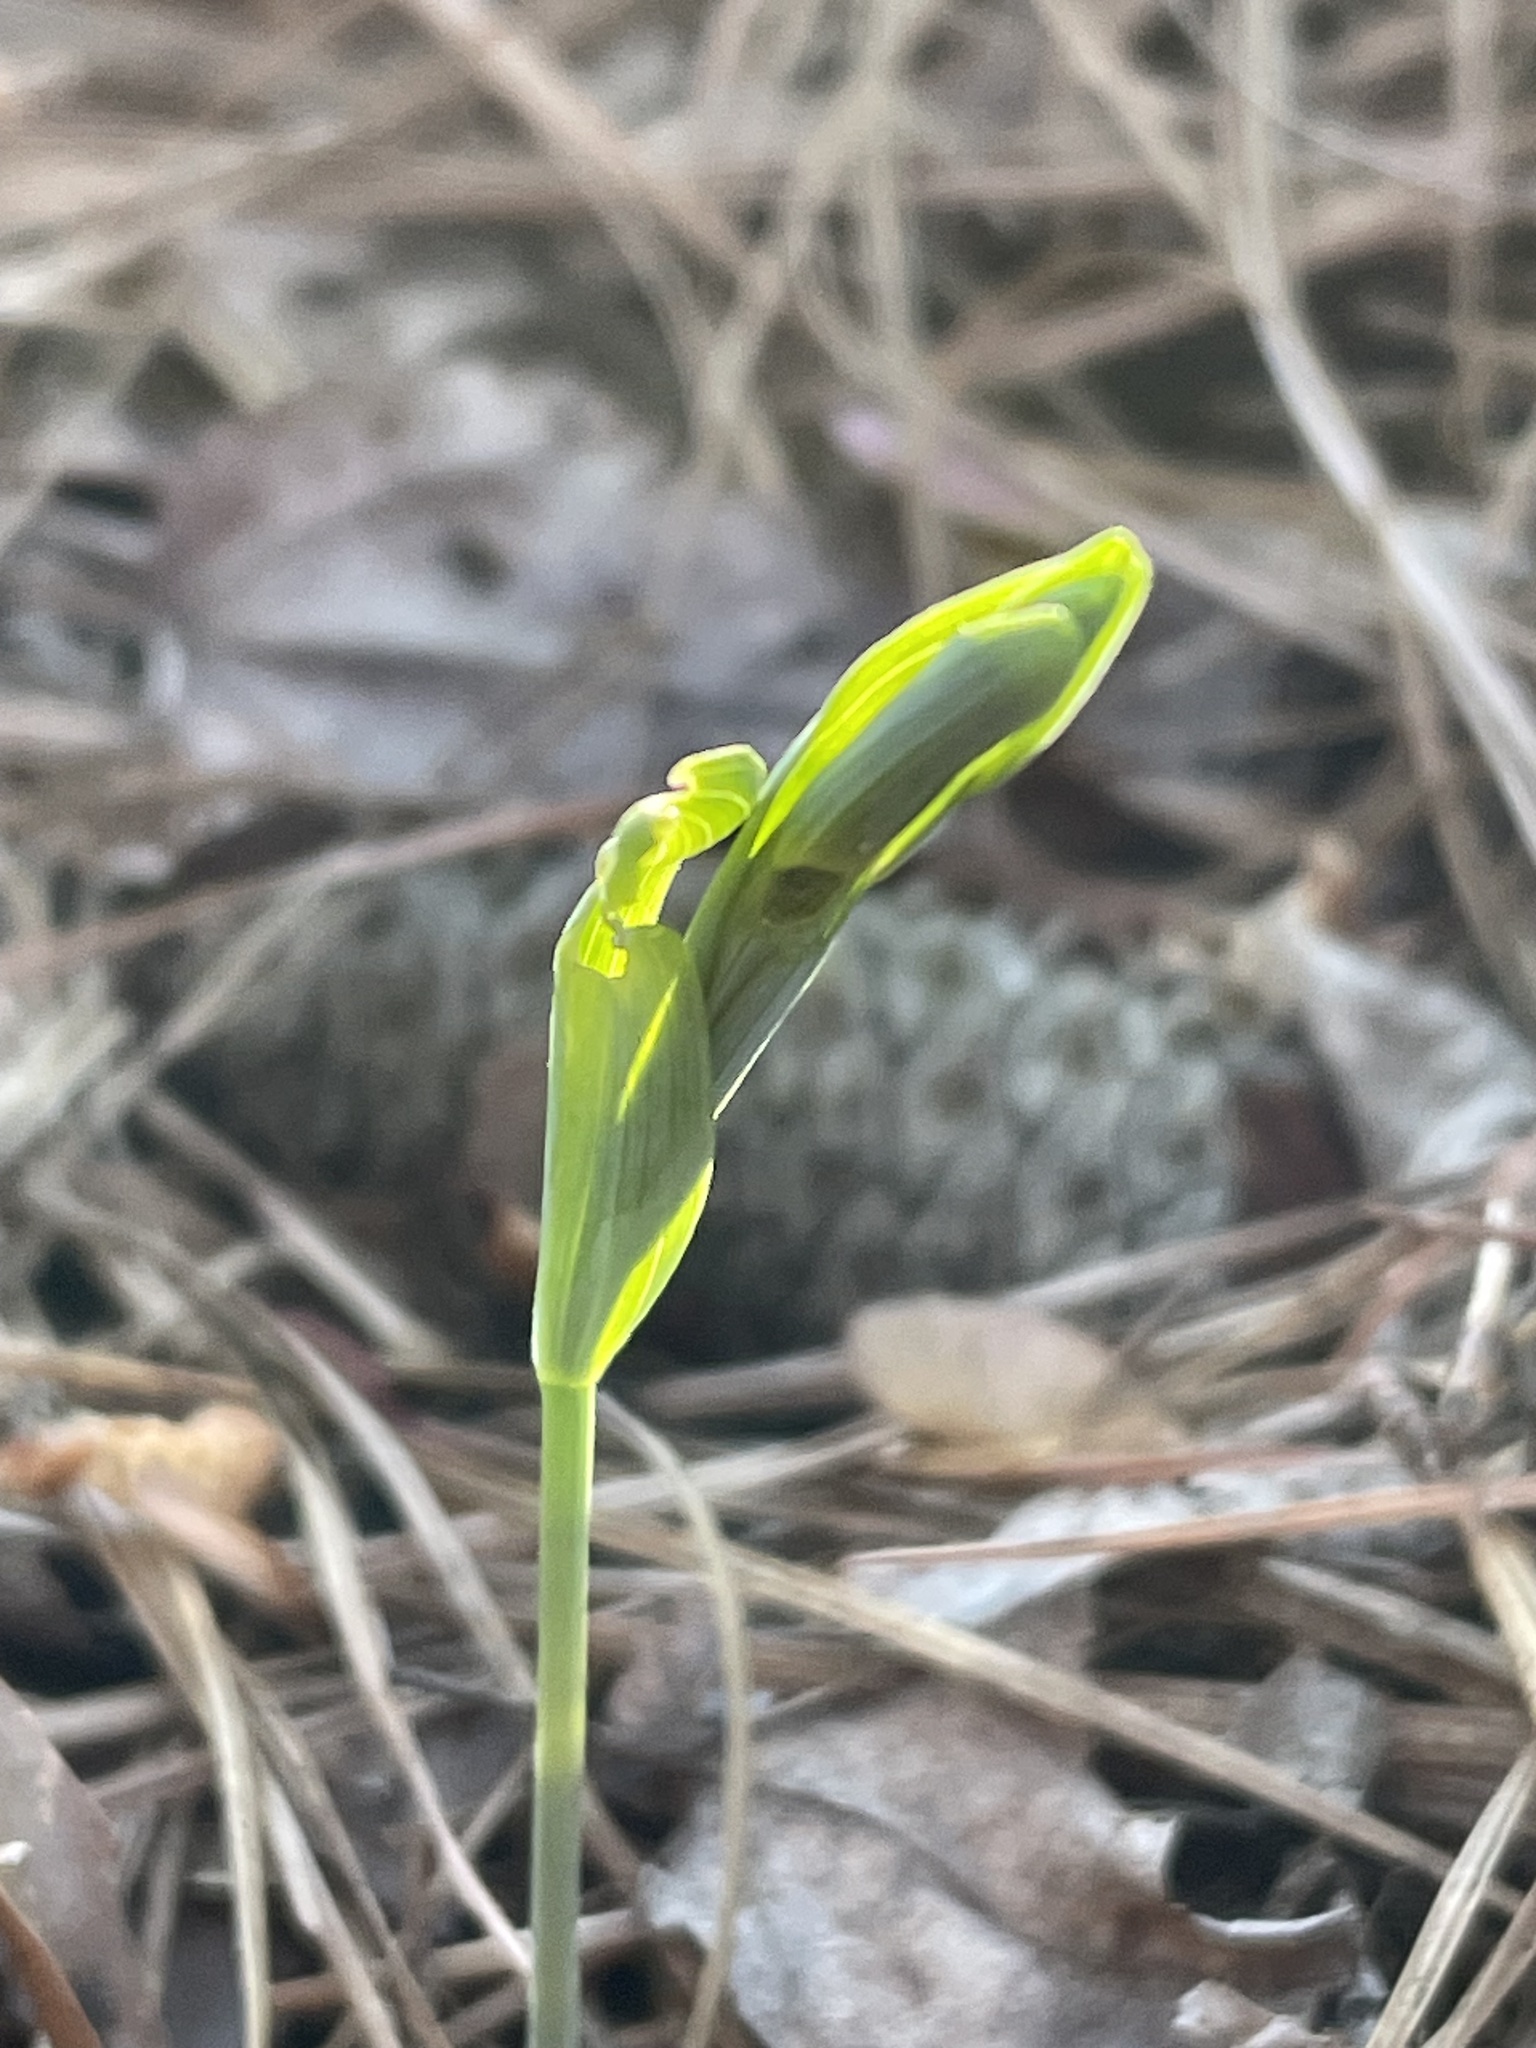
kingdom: Plantae
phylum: Tracheophyta
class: Liliopsida
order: Liliales
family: Colchicaceae
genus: Uvularia
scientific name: Uvularia sessilifolia
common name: Straw-lily
